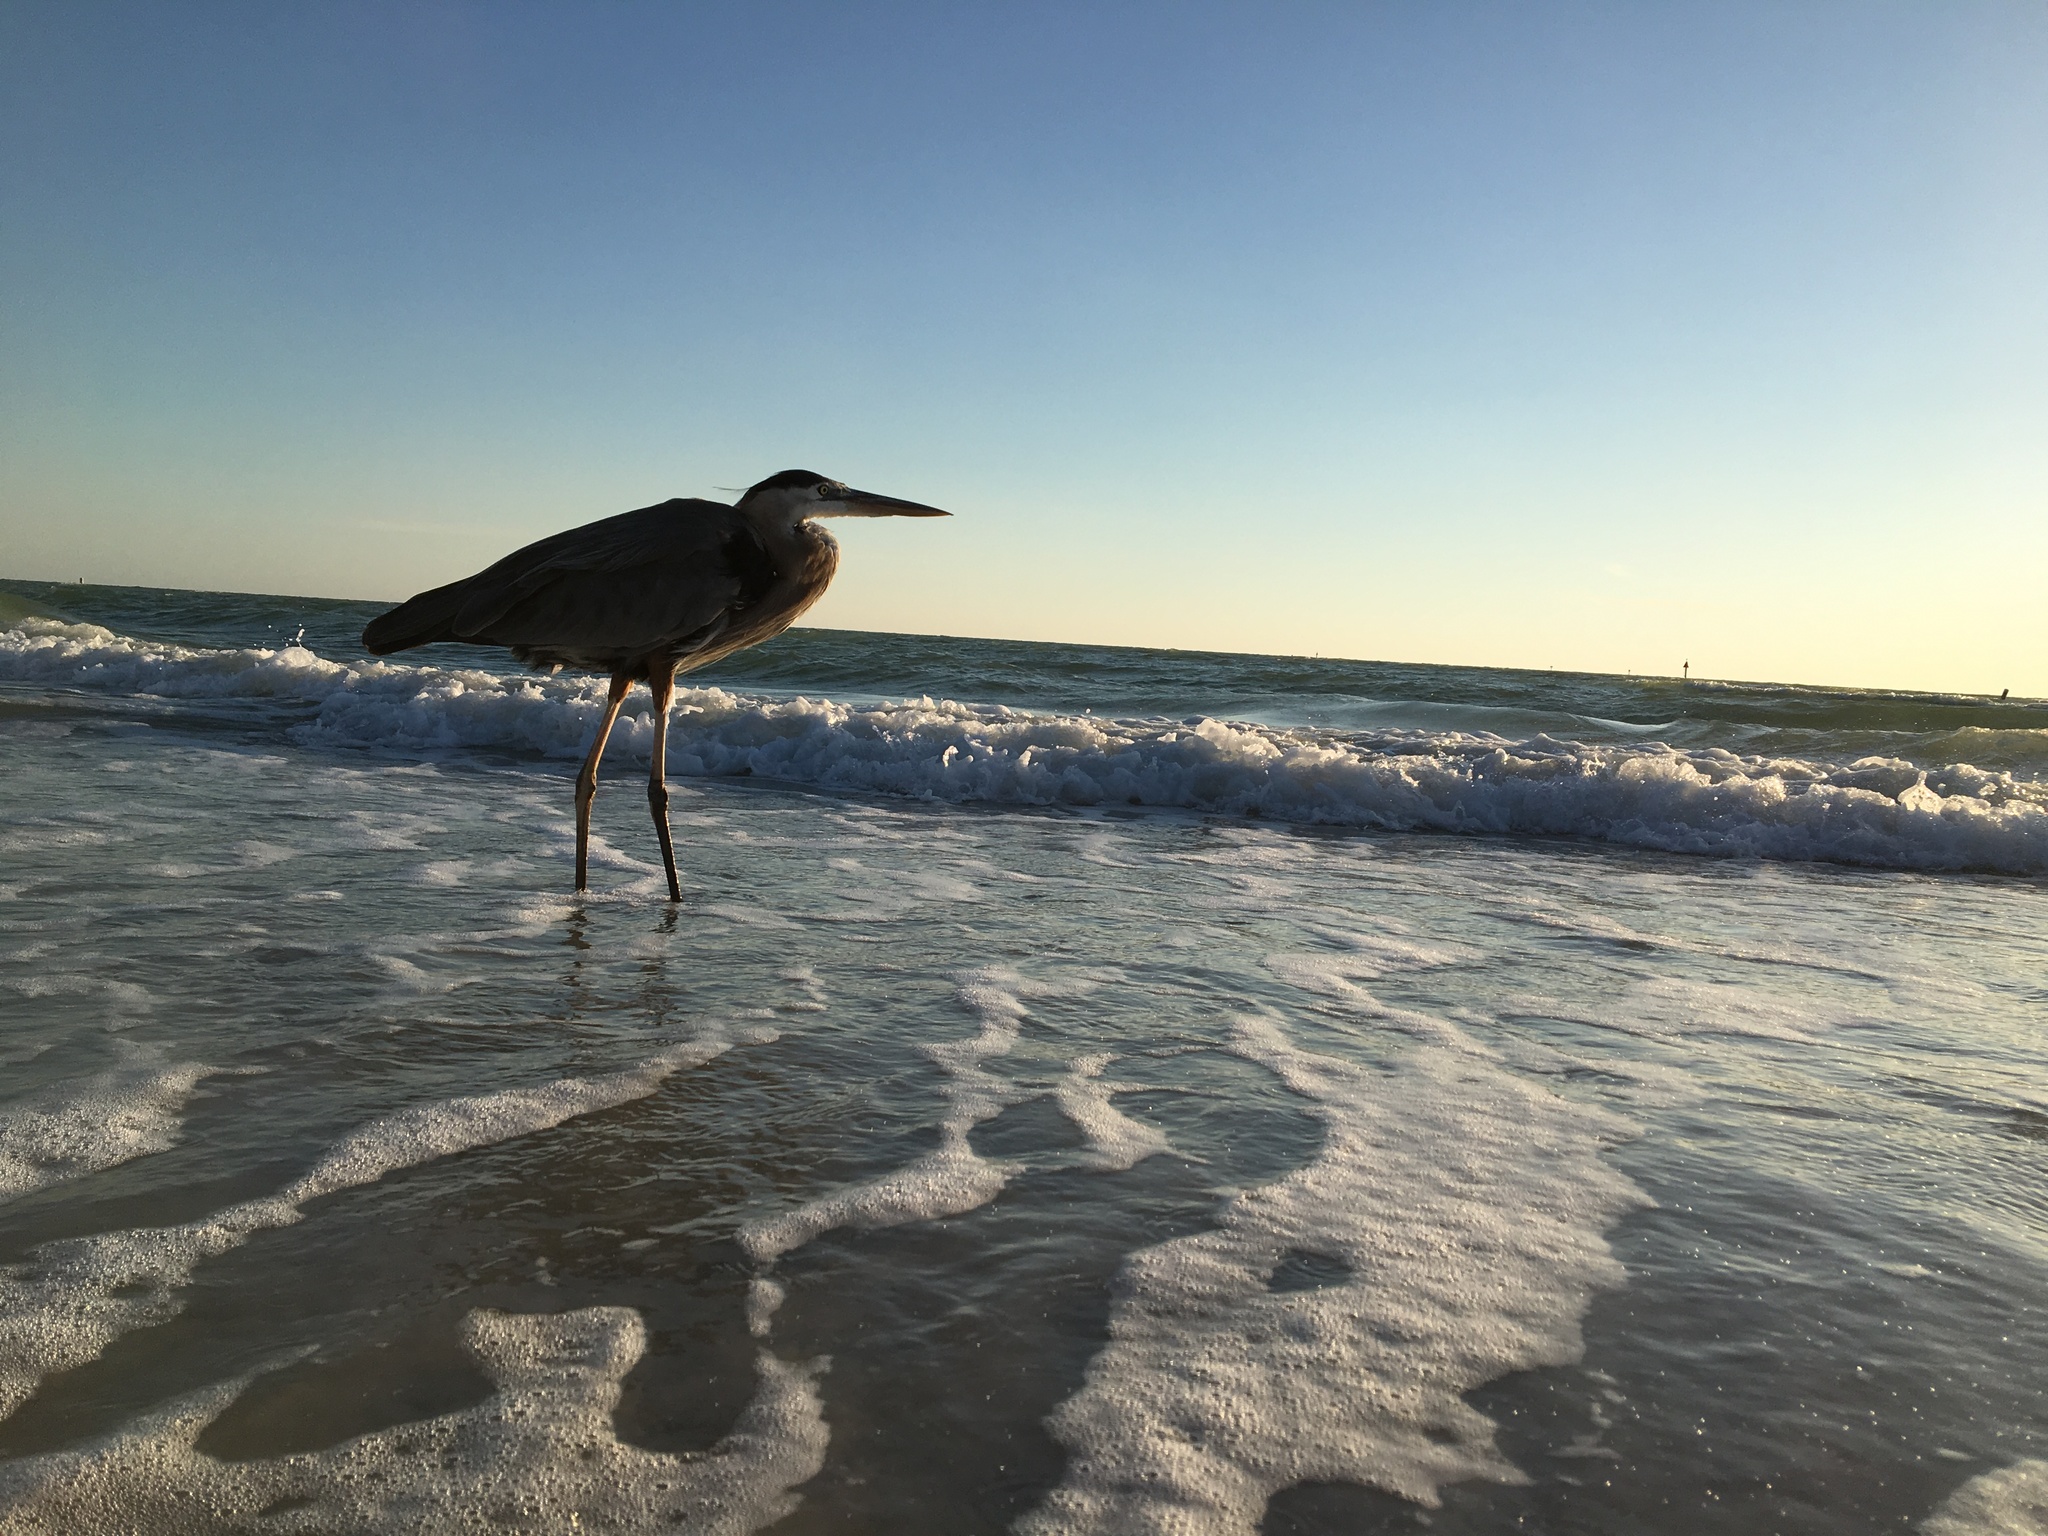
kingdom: Animalia
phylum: Chordata
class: Aves
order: Pelecaniformes
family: Ardeidae
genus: Ardea
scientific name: Ardea herodias
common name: Great blue heron
